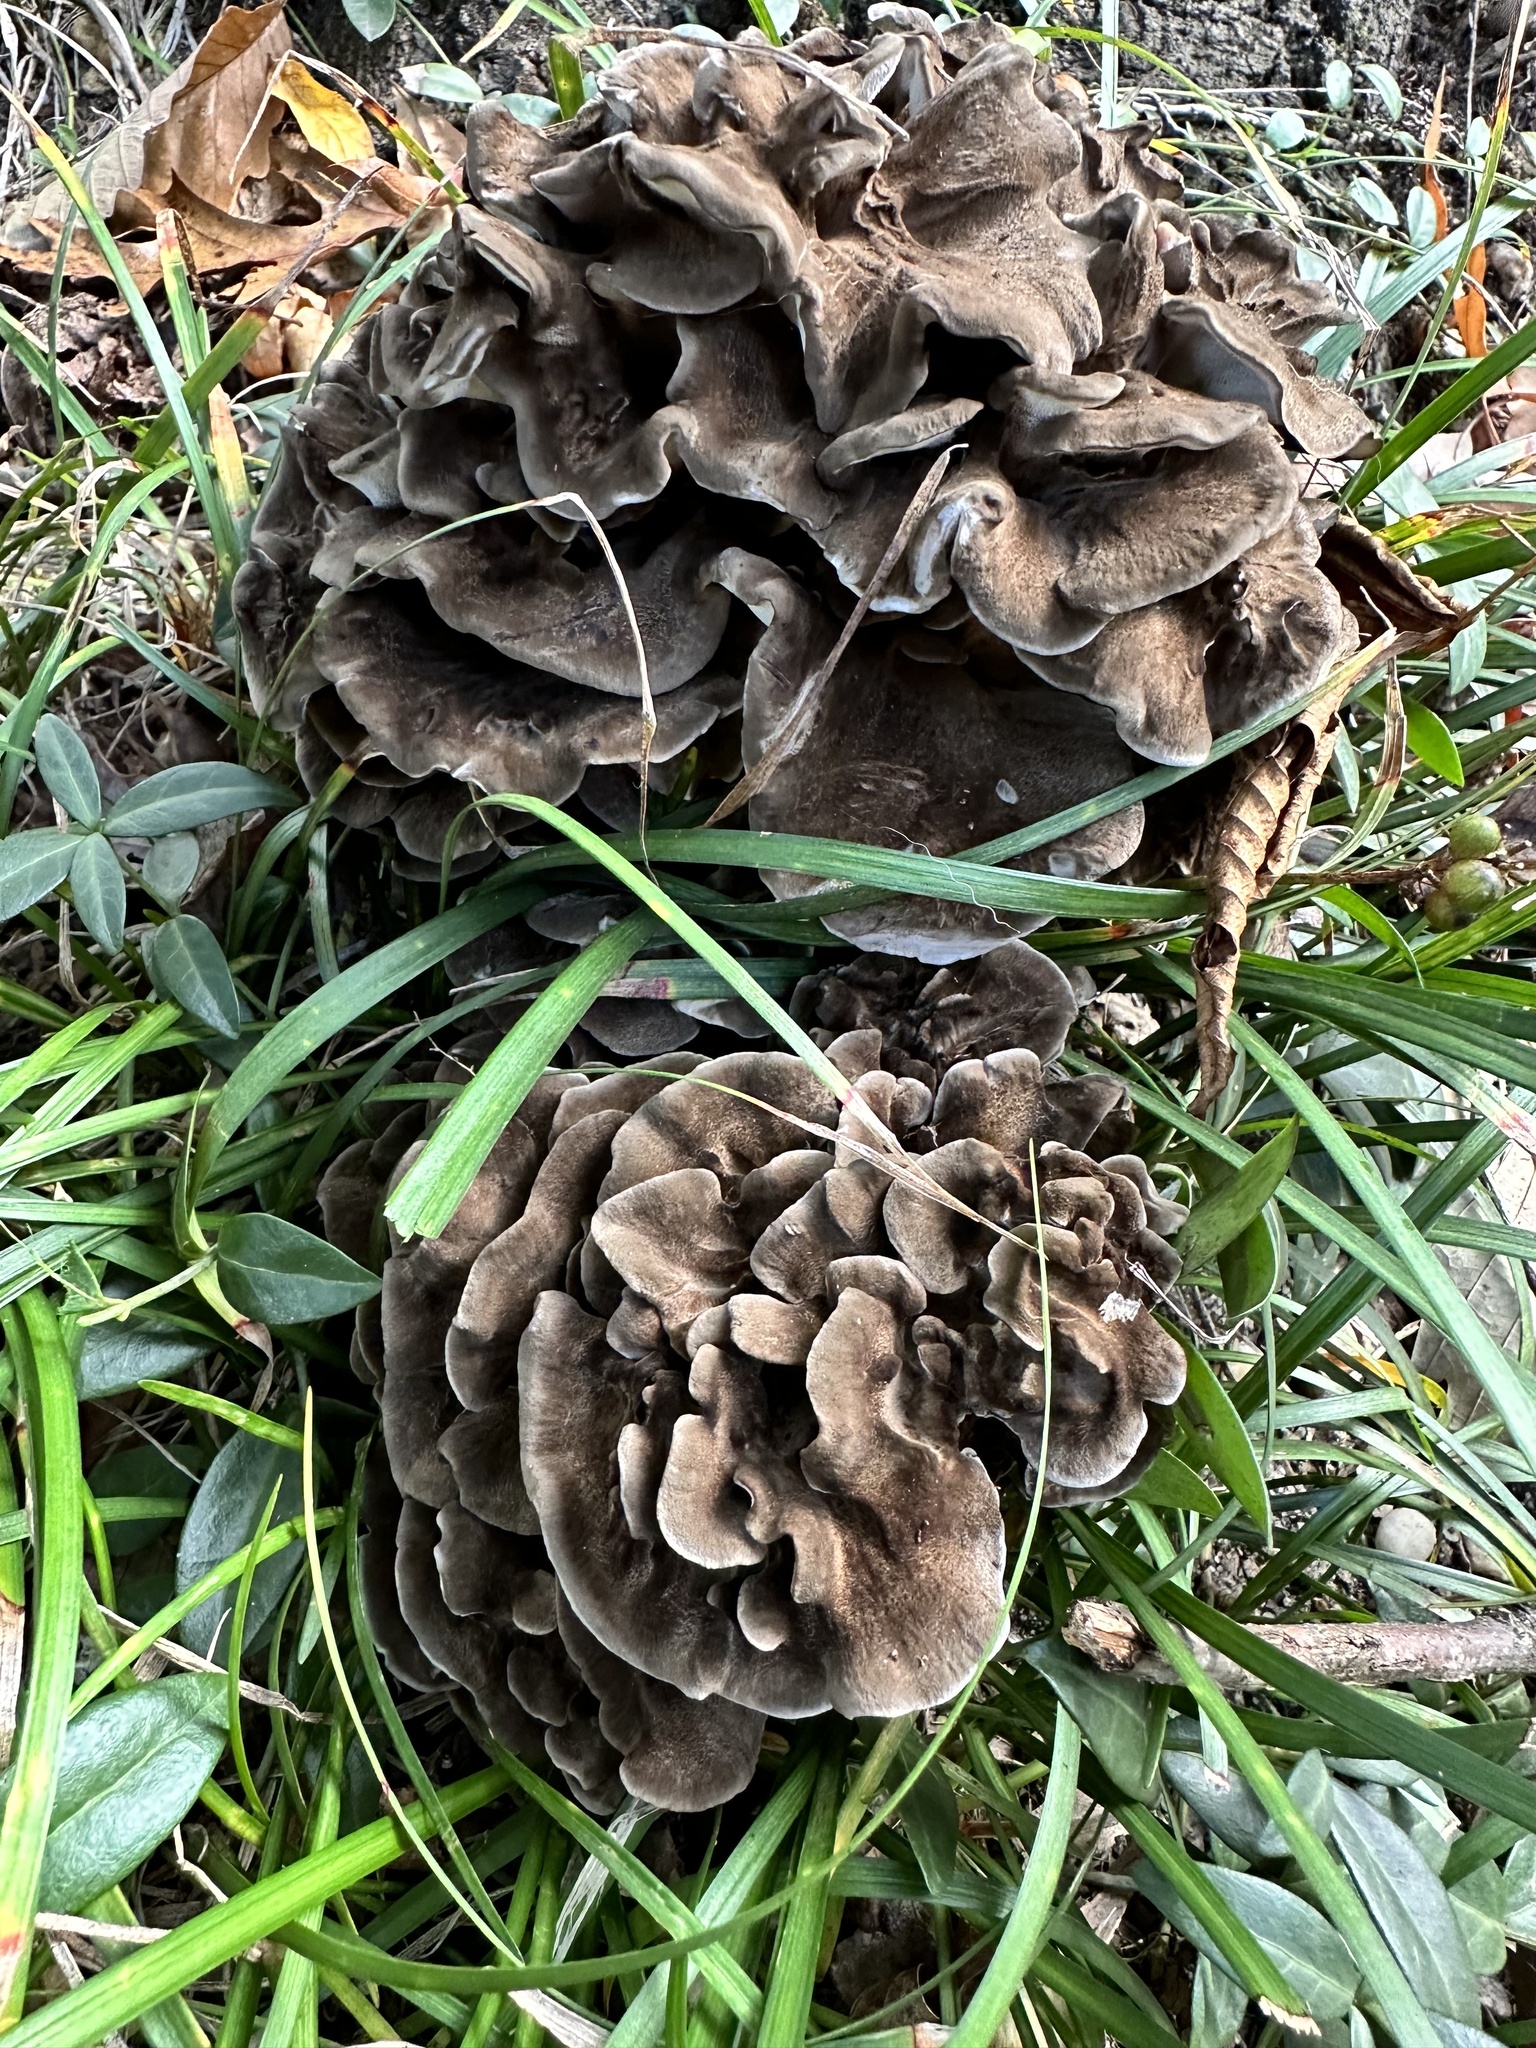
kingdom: Fungi
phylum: Basidiomycota
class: Agaricomycetes
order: Polyporales
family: Grifolaceae
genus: Grifola
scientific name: Grifola frondosa
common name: Hen of the woods
